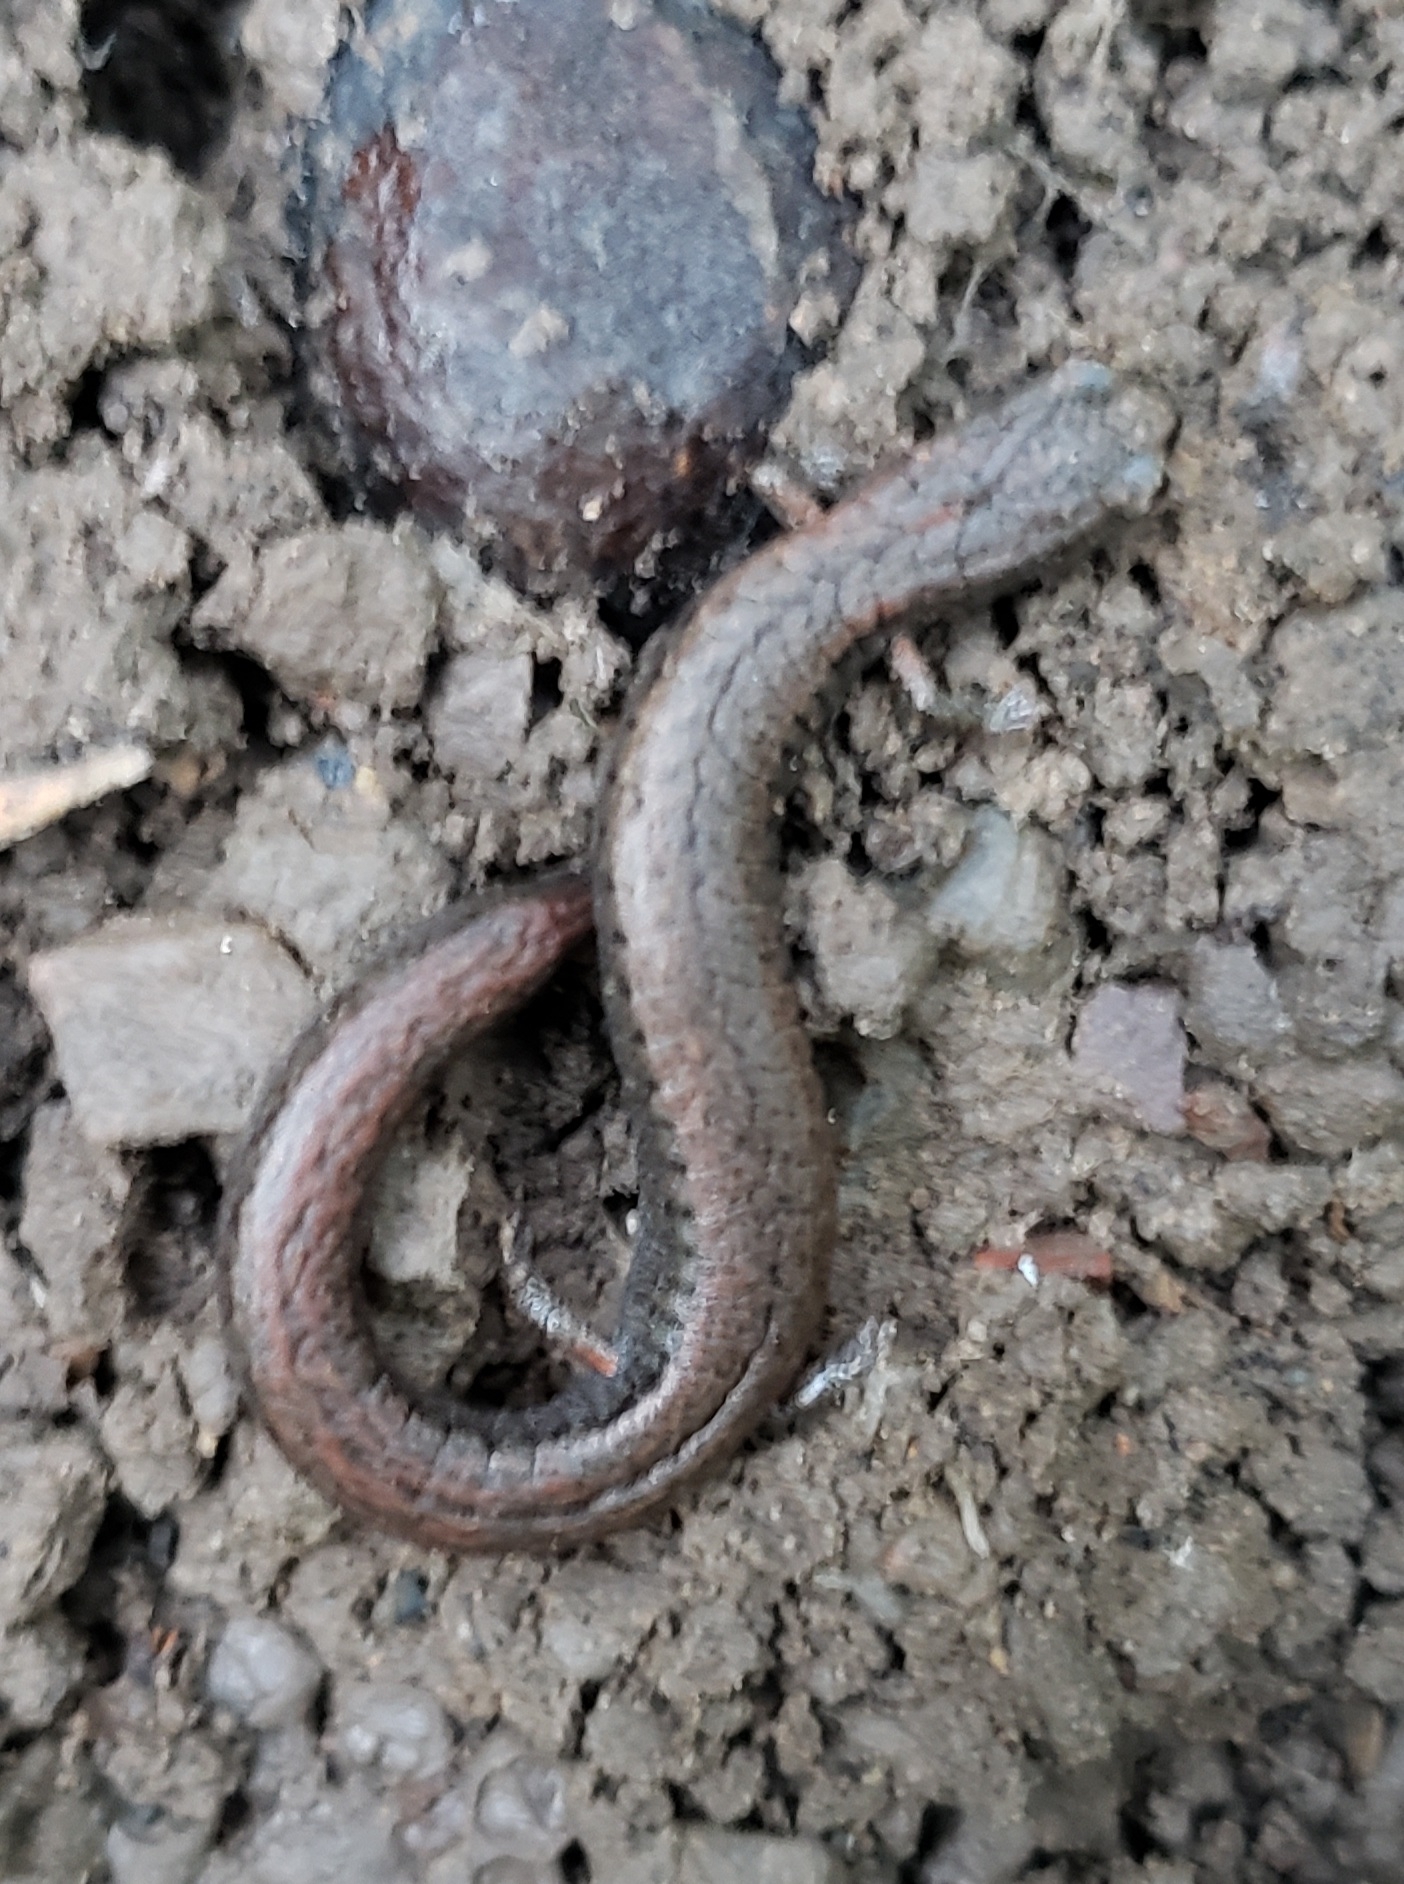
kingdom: Animalia
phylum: Chordata
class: Amphibia
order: Caudata
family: Plethodontidae
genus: Batrachoseps
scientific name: Batrachoseps attenuatus
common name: California slender salamander
